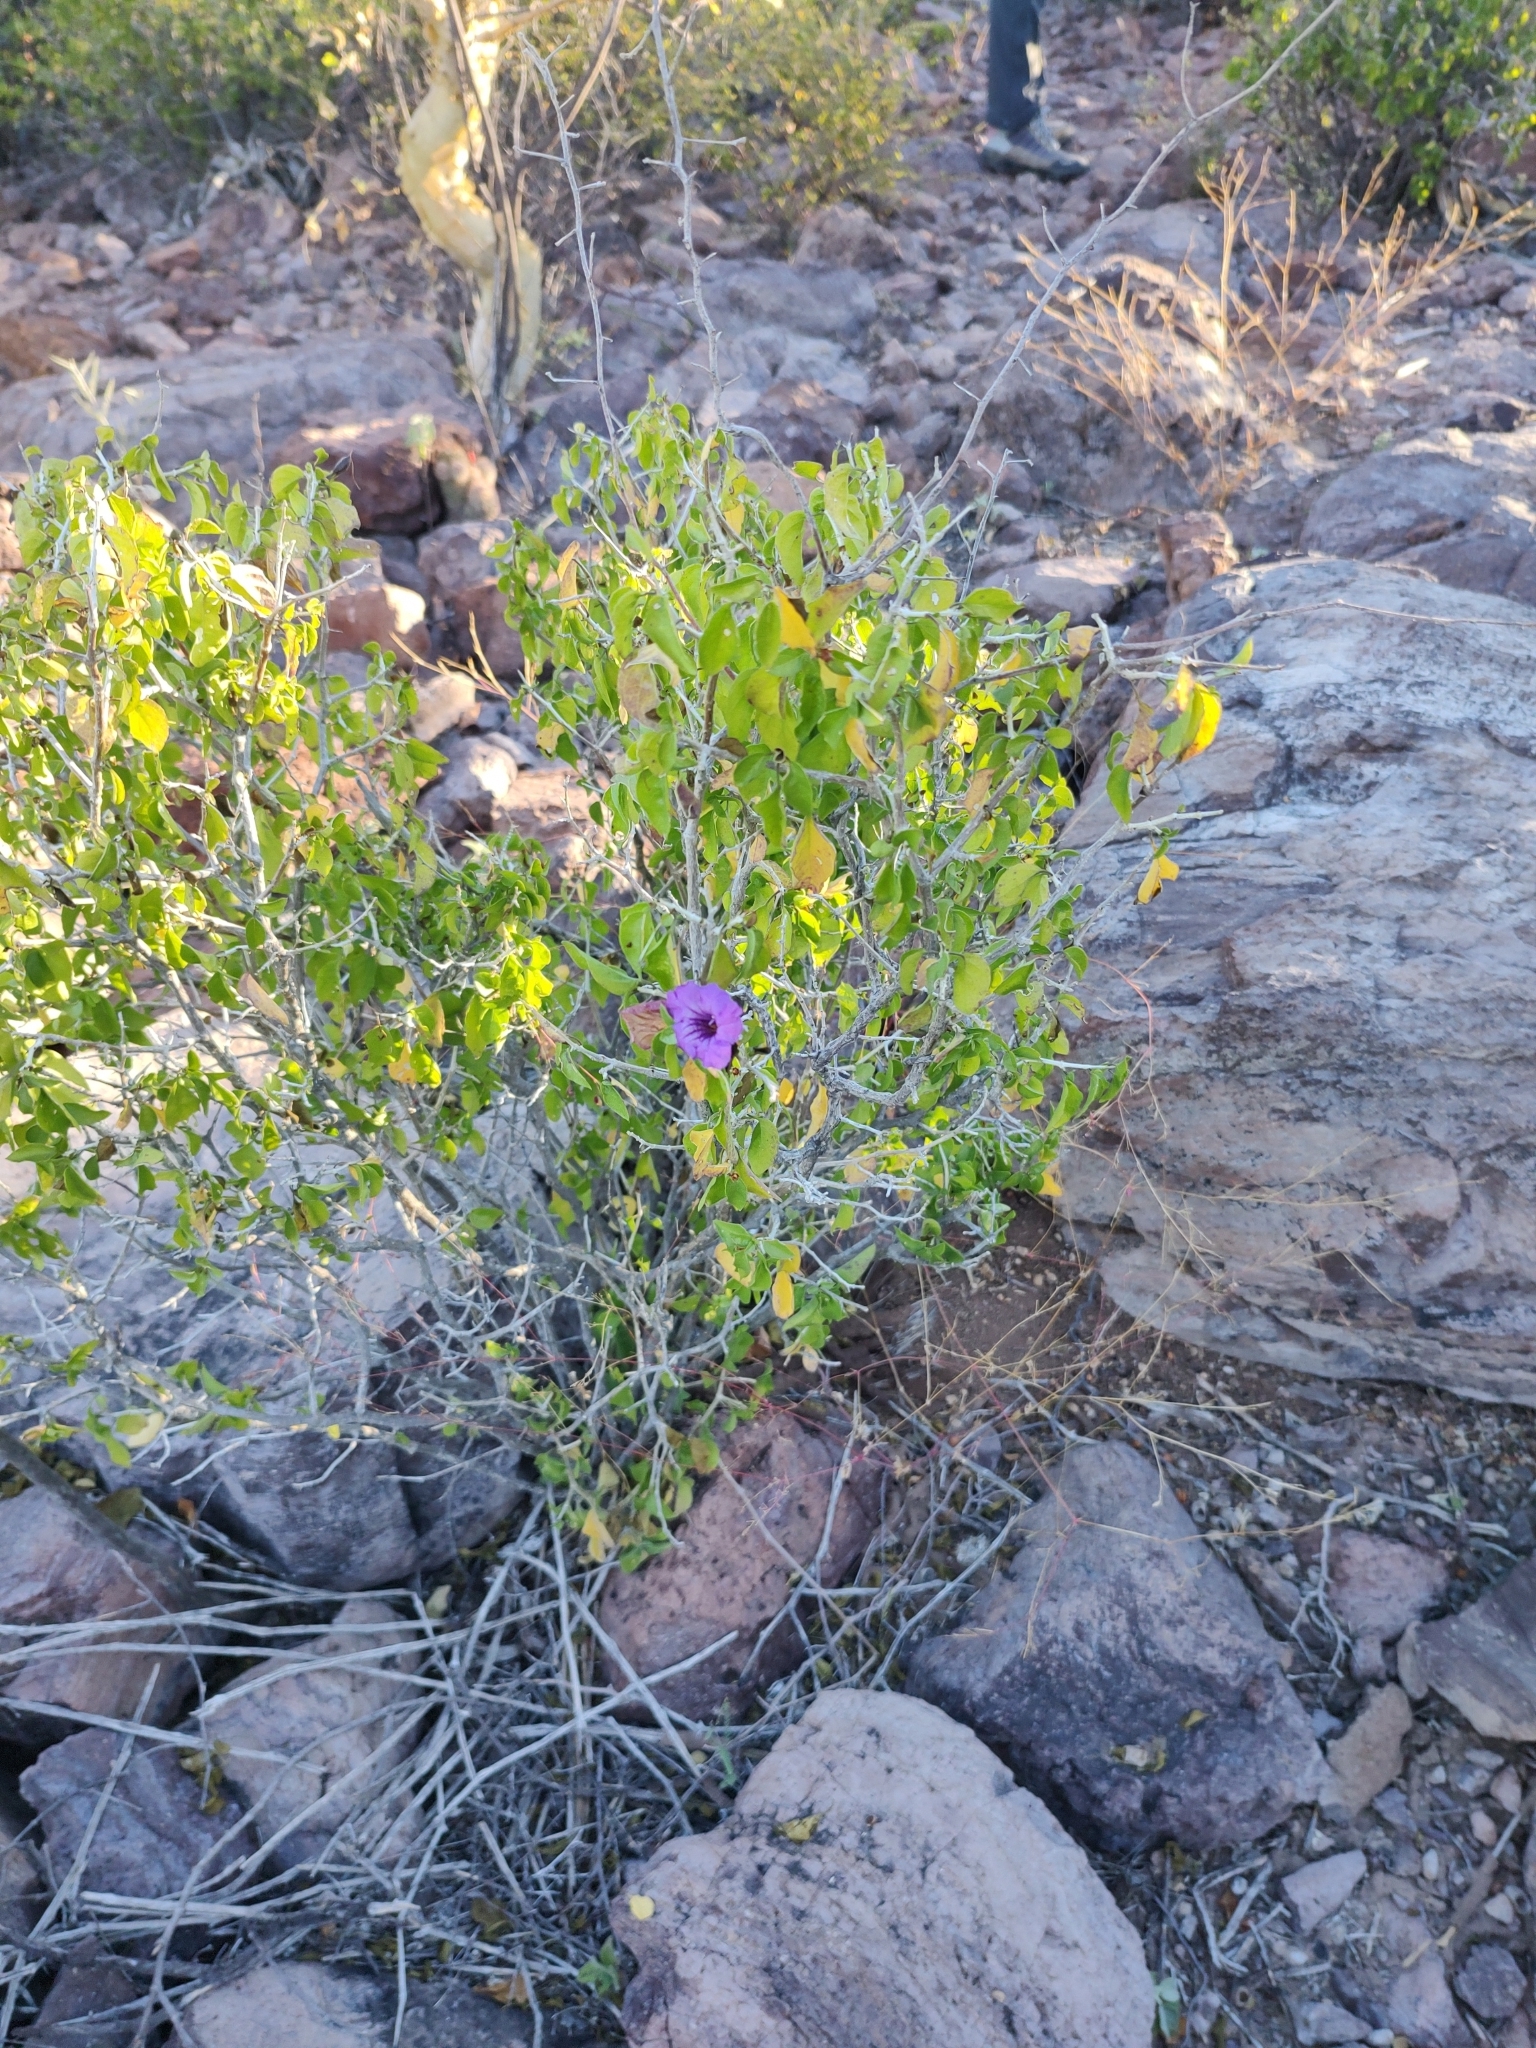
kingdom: Plantae
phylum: Tracheophyta
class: Magnoliopsida
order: Lamiales
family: Acanthaceae
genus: Ruellia
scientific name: Ruellia californica
